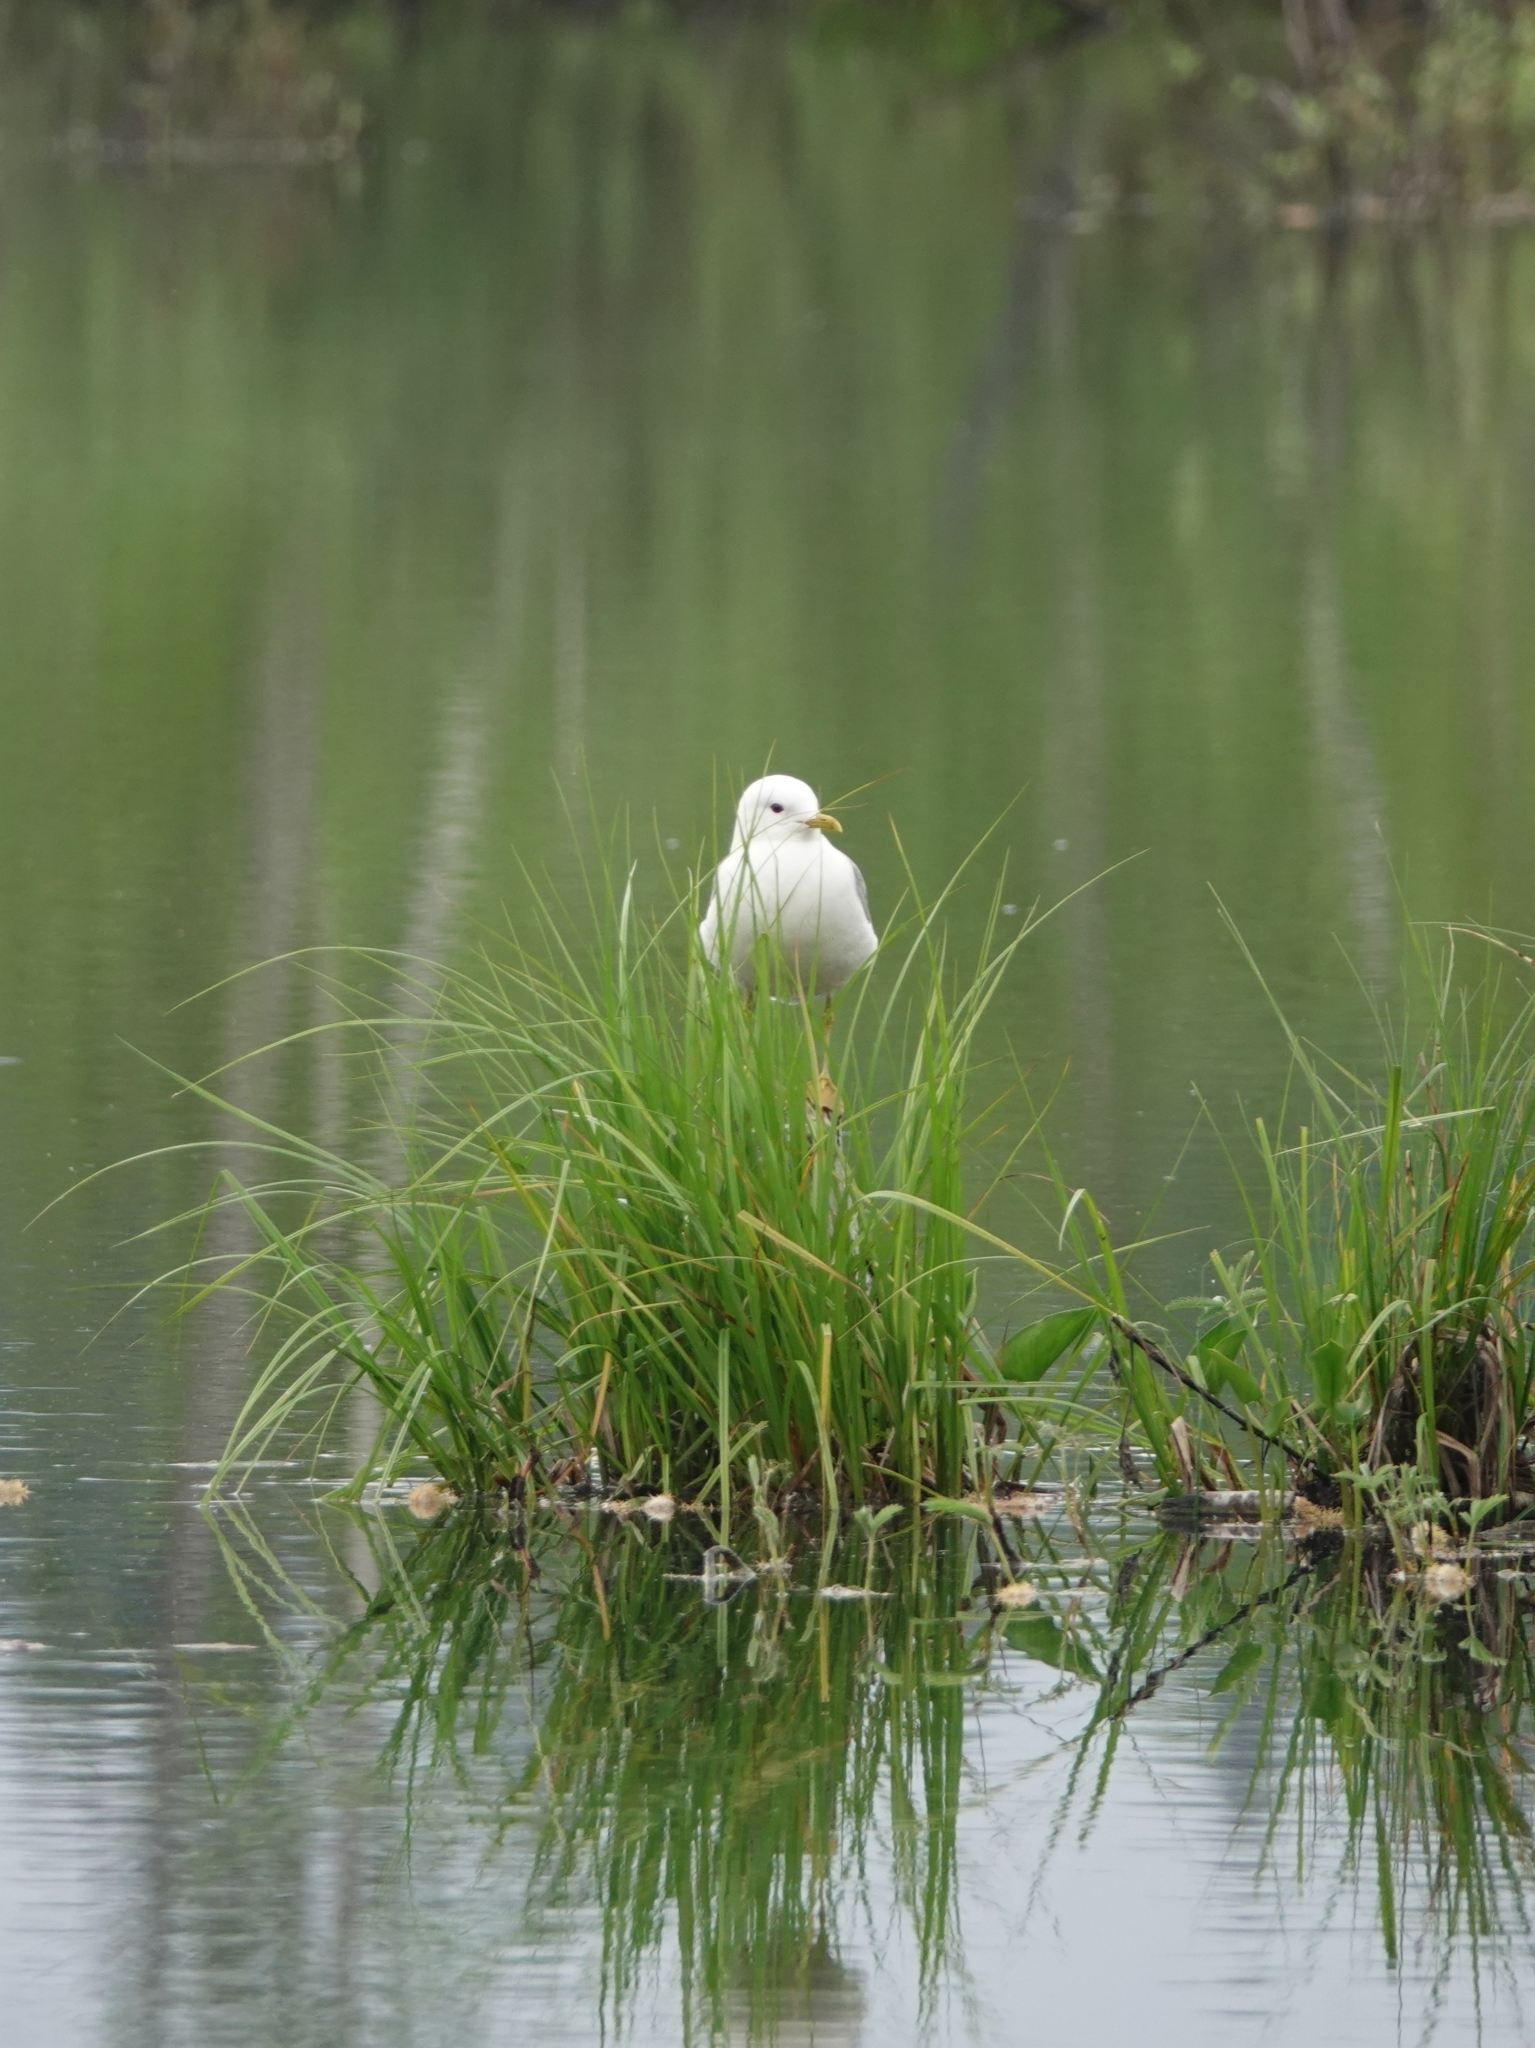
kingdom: Animalia
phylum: Chordata
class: Aves
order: Charadriiformes
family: Laridae
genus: Larus
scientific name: Larus canus
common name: Mew gull
